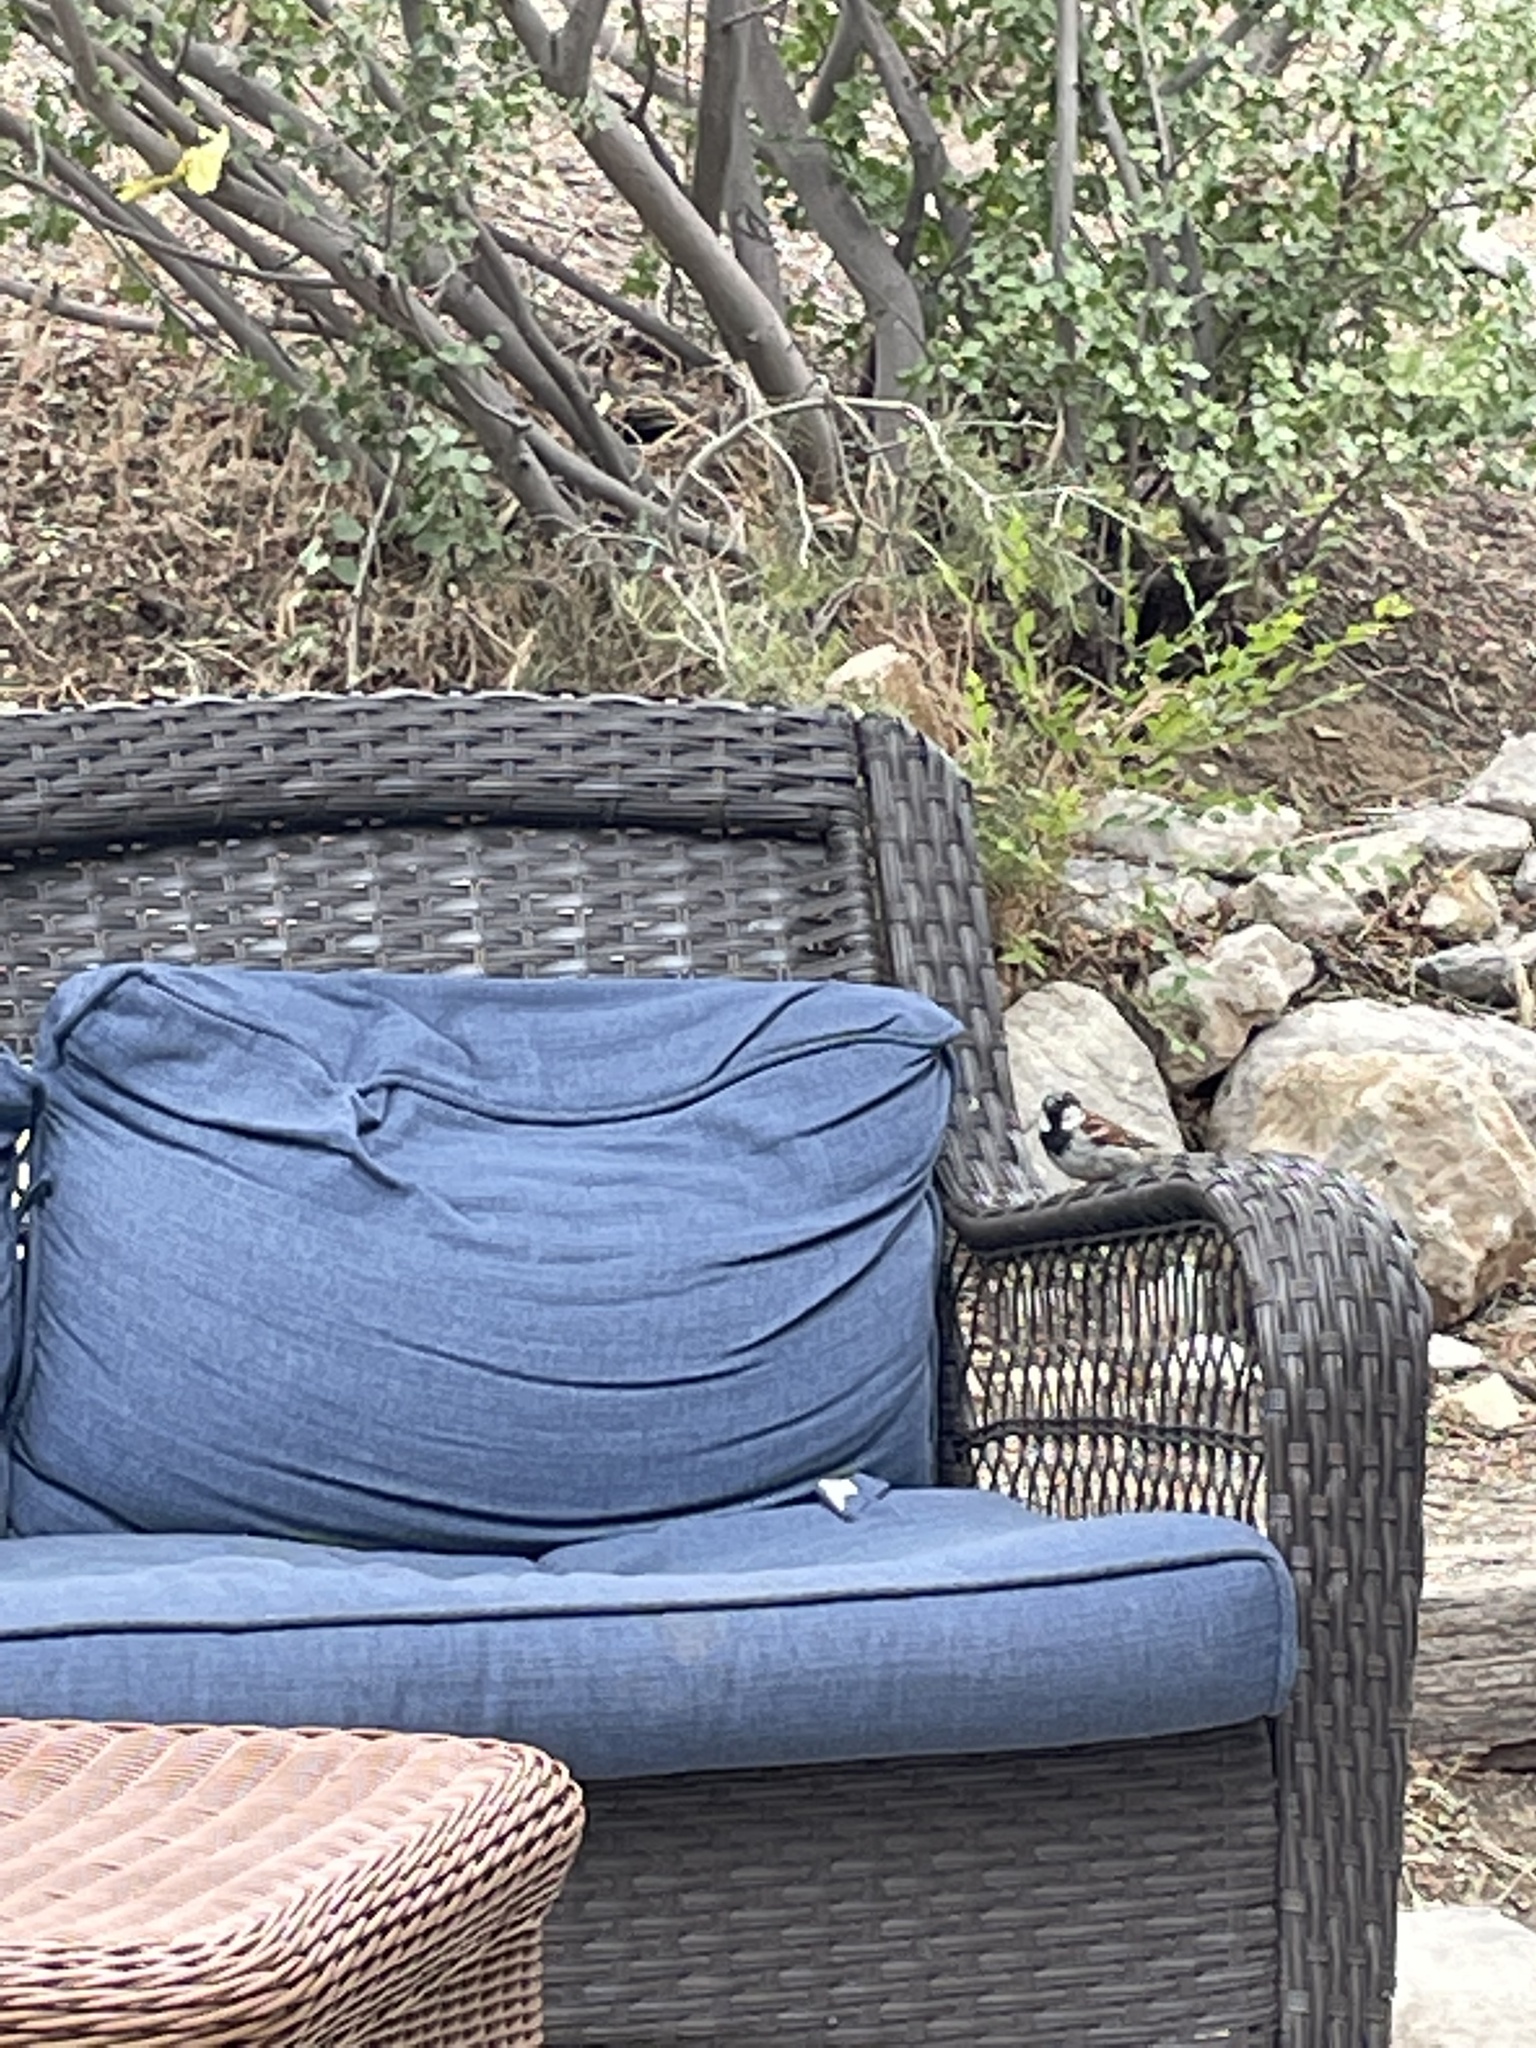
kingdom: Animalia
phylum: Chordata
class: Aves
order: Passeriformes
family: Passeridae
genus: Passer
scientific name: Passer domesticus
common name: House sparrow
